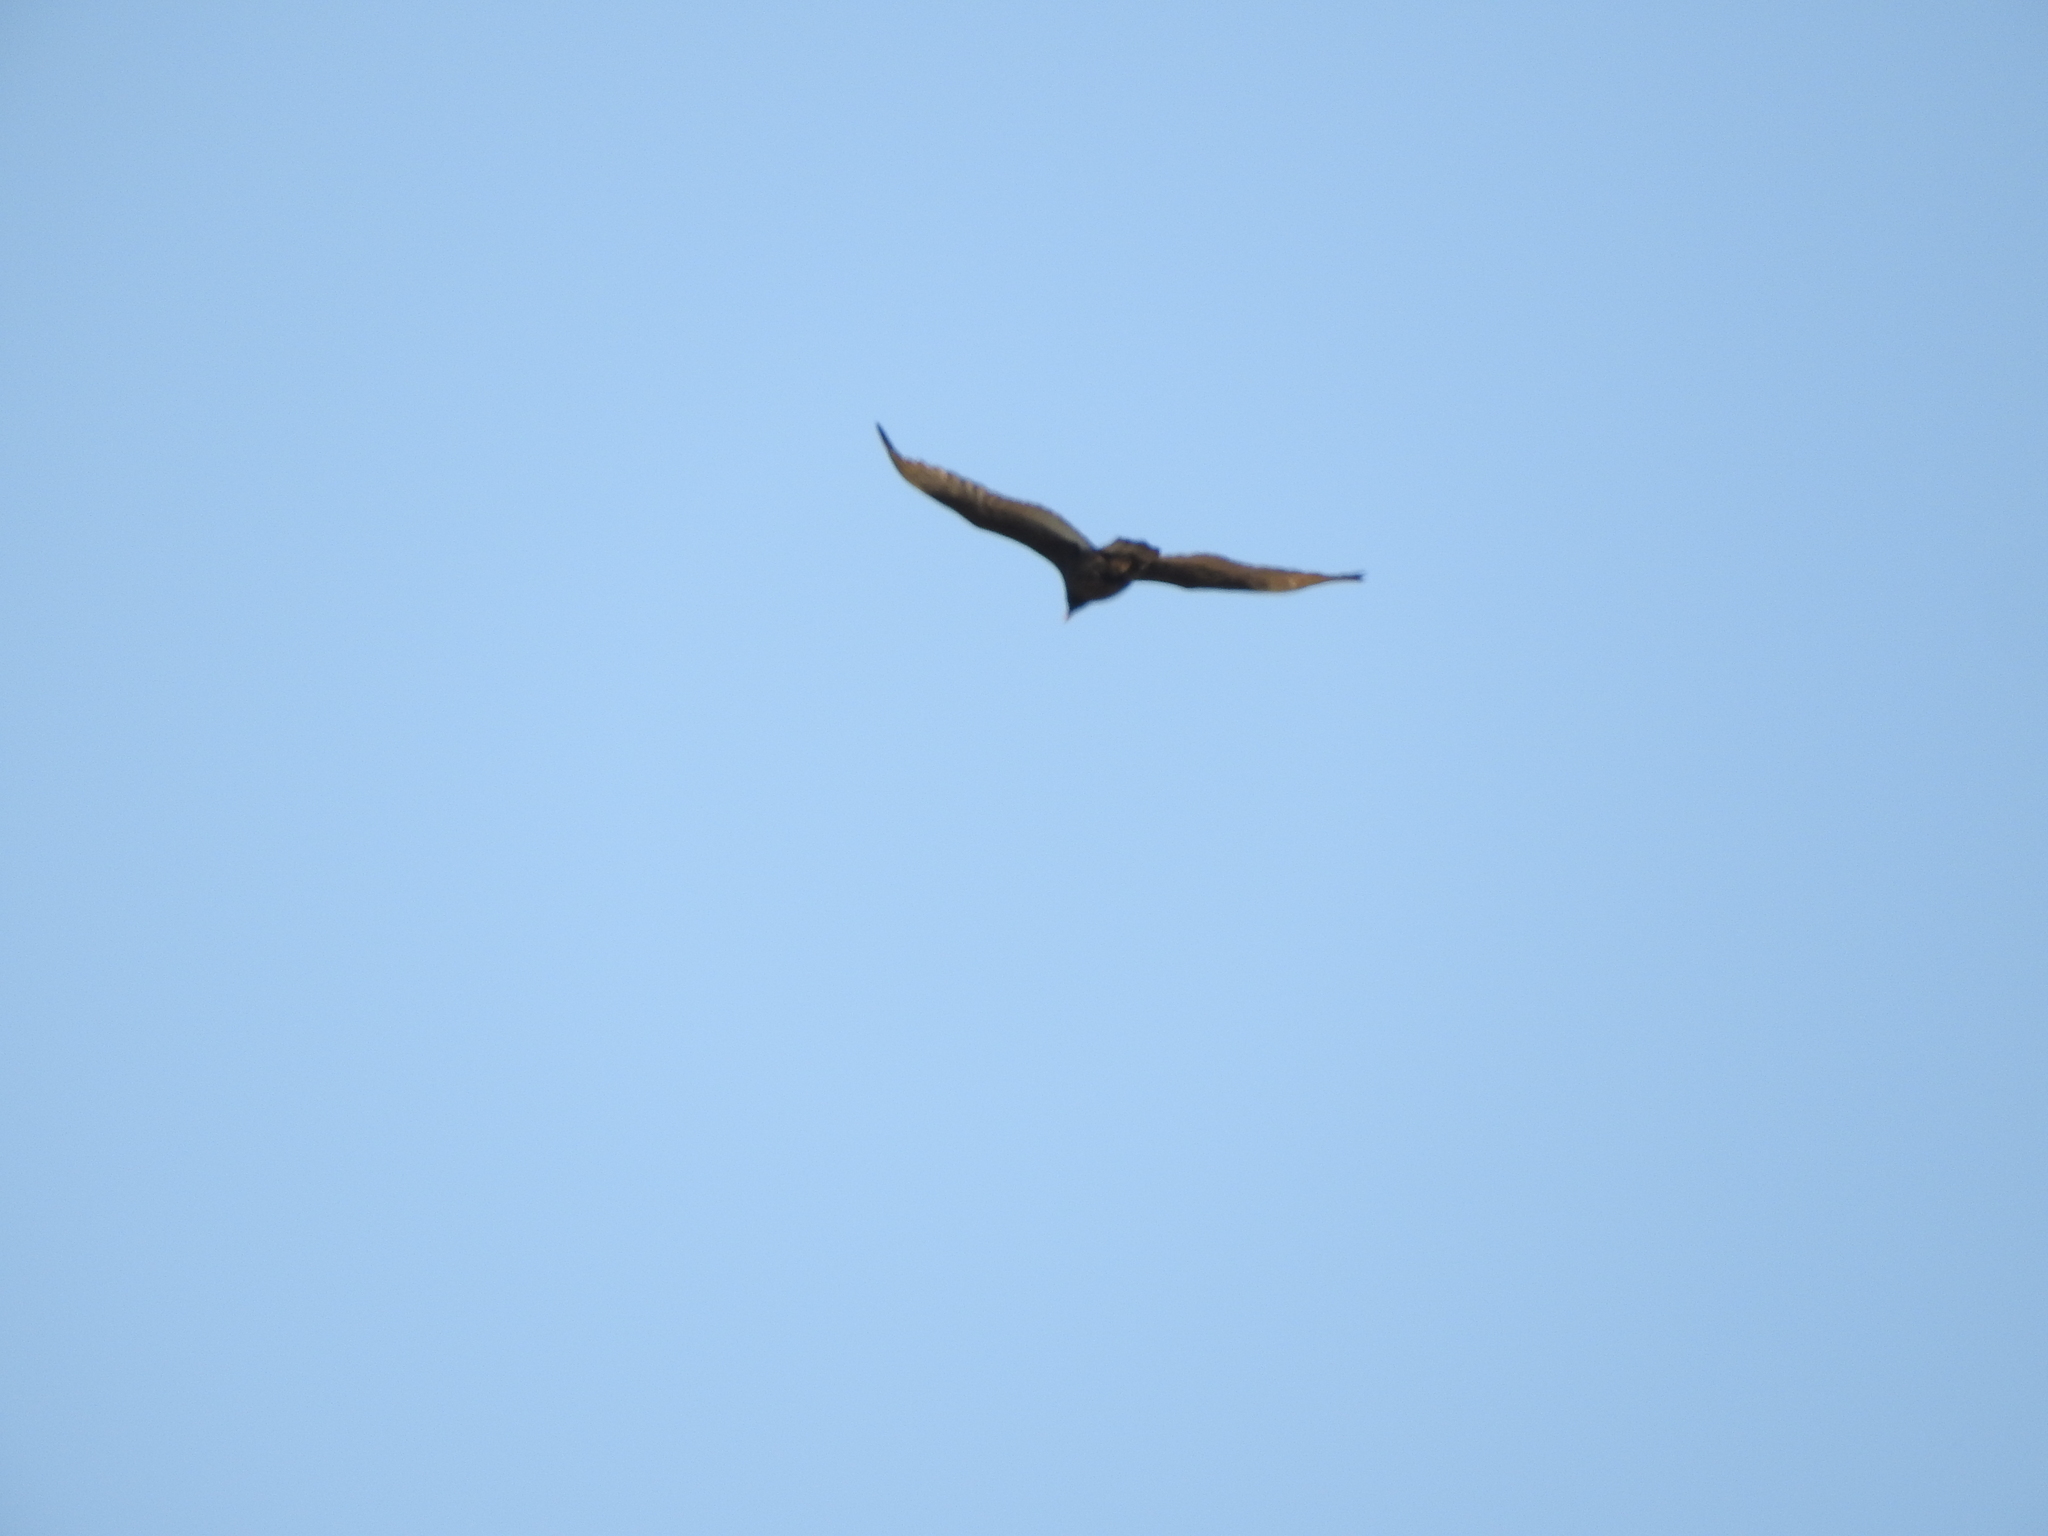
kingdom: Animalia
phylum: Chordata
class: Aves
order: Accipitriformes
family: Cathartidae
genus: Cathartes
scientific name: Cathartes aura
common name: Turkey vulture
